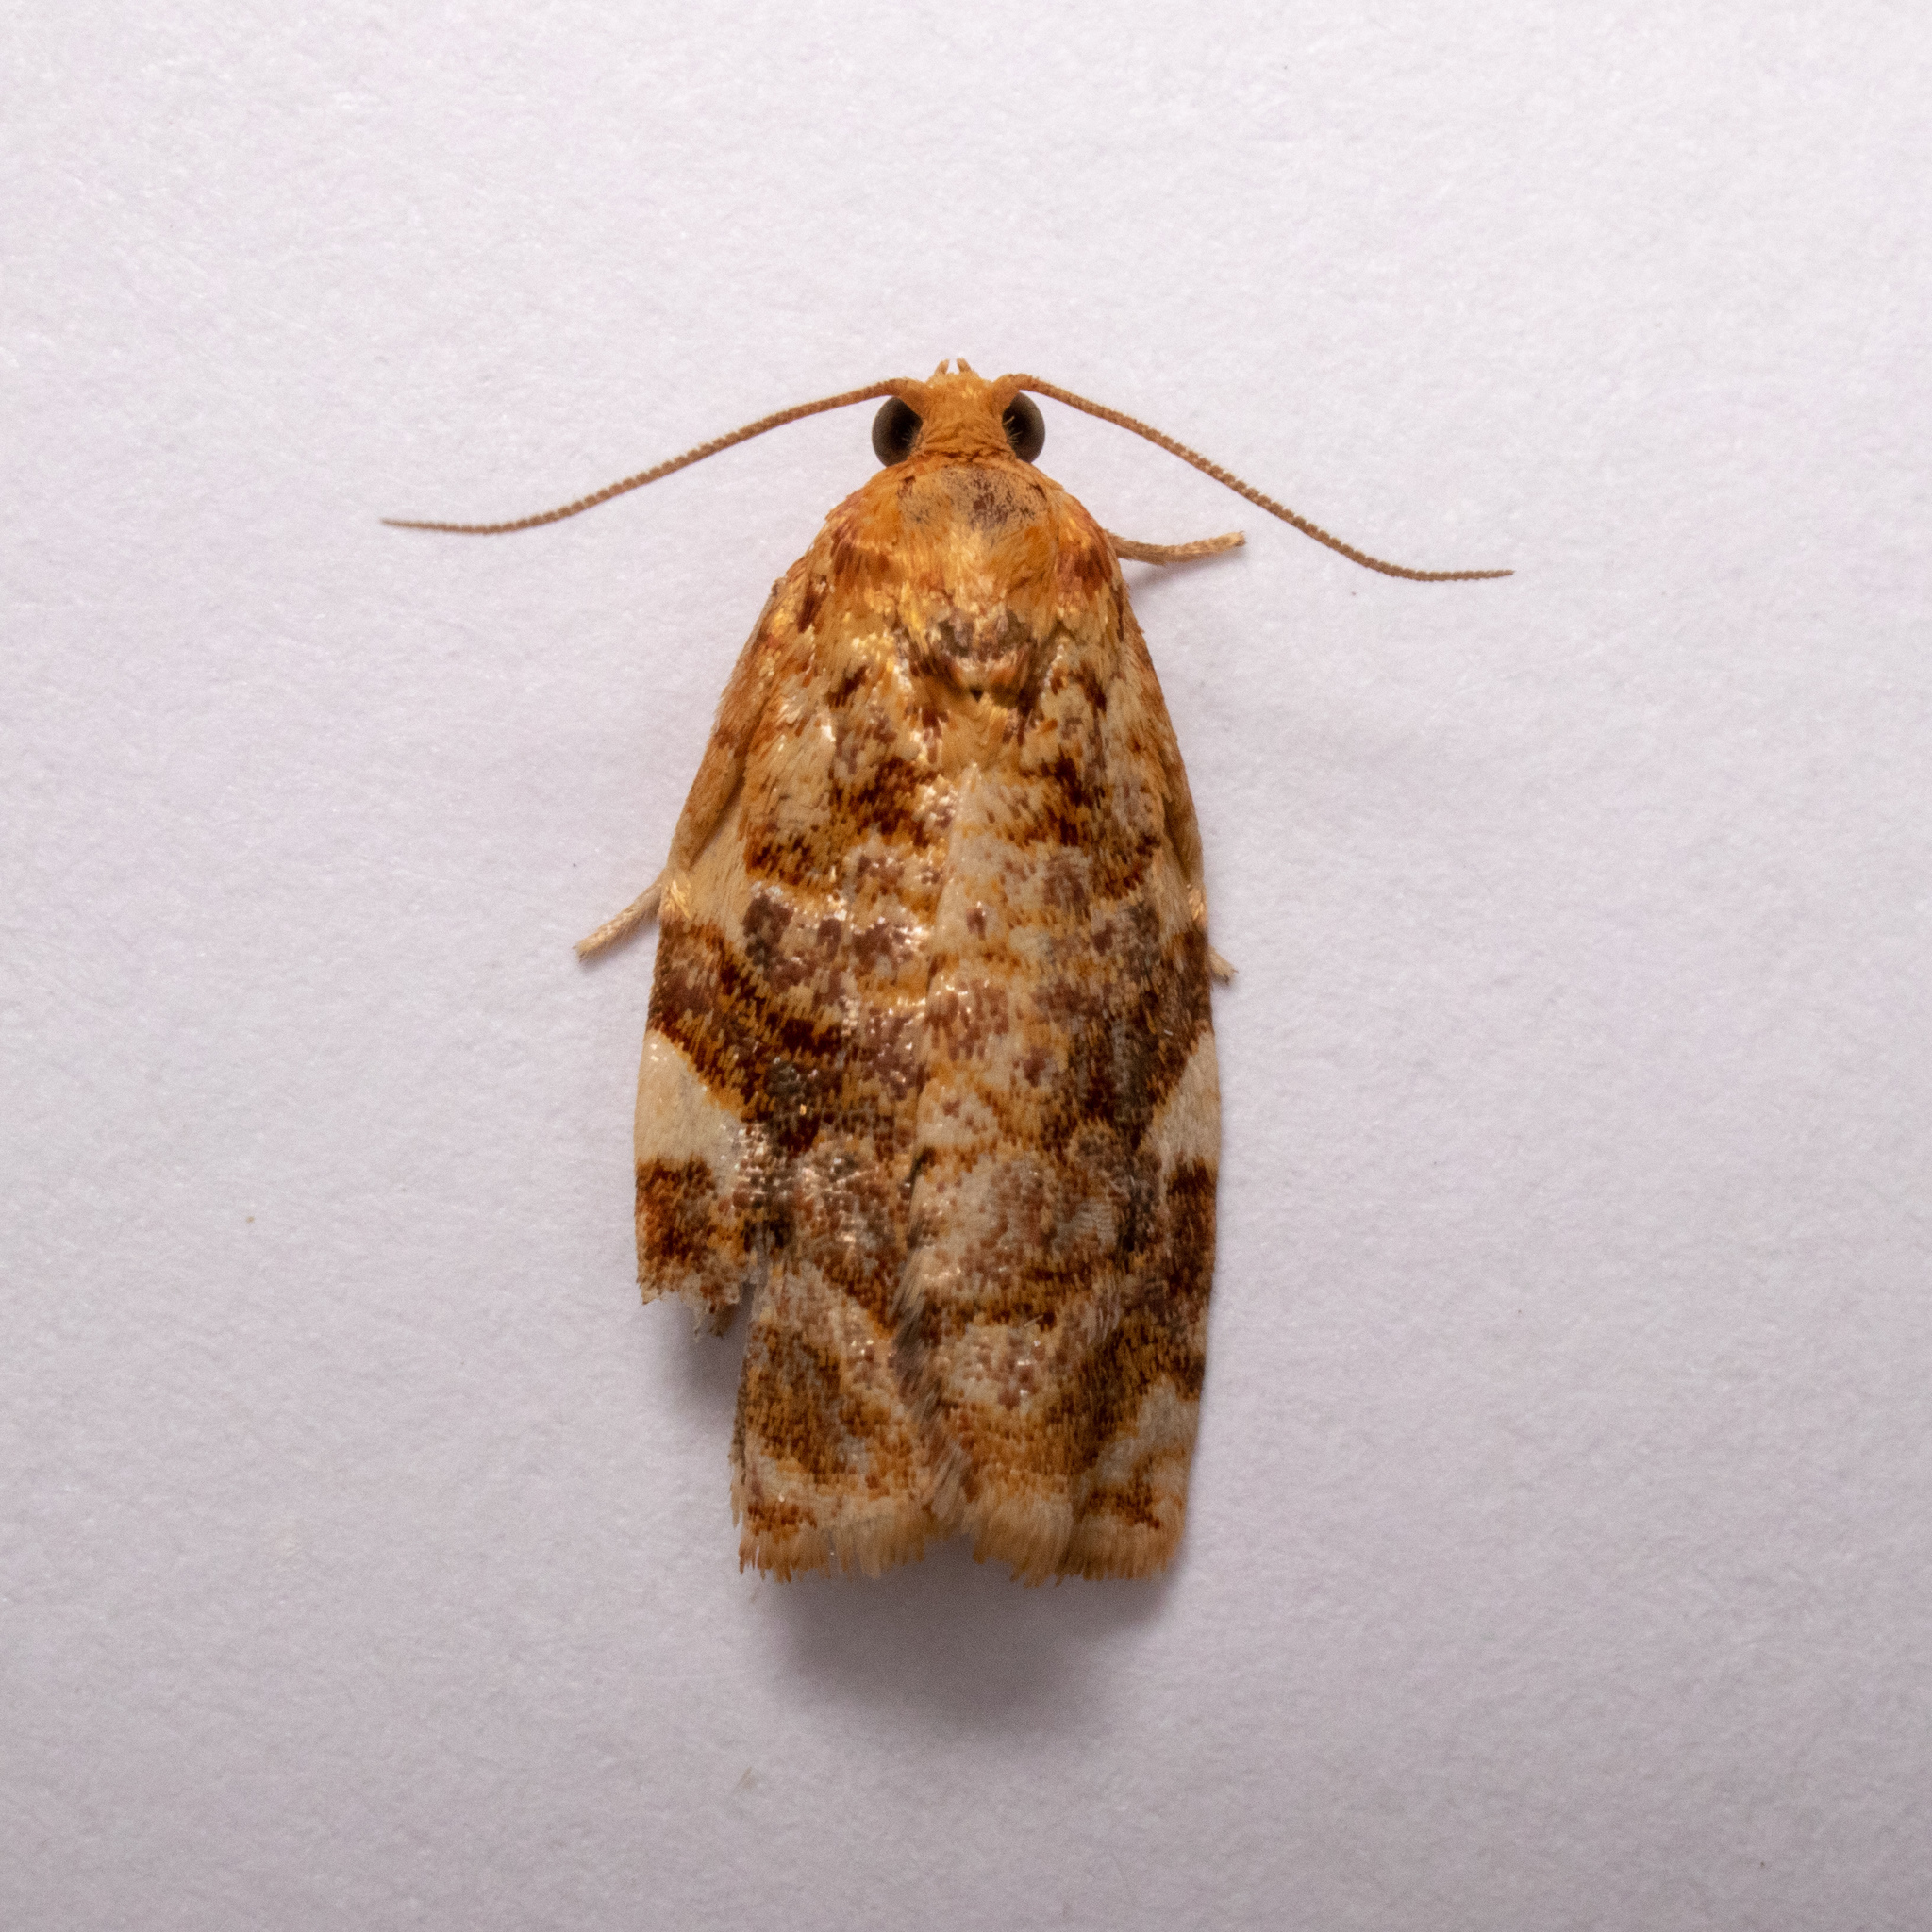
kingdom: Animalia
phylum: Arthropoda
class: Insecta
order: Lepidoptera
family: Tortricidae
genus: Archips
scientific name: Archips argyrospila
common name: Fruit-tree leafroller moth
